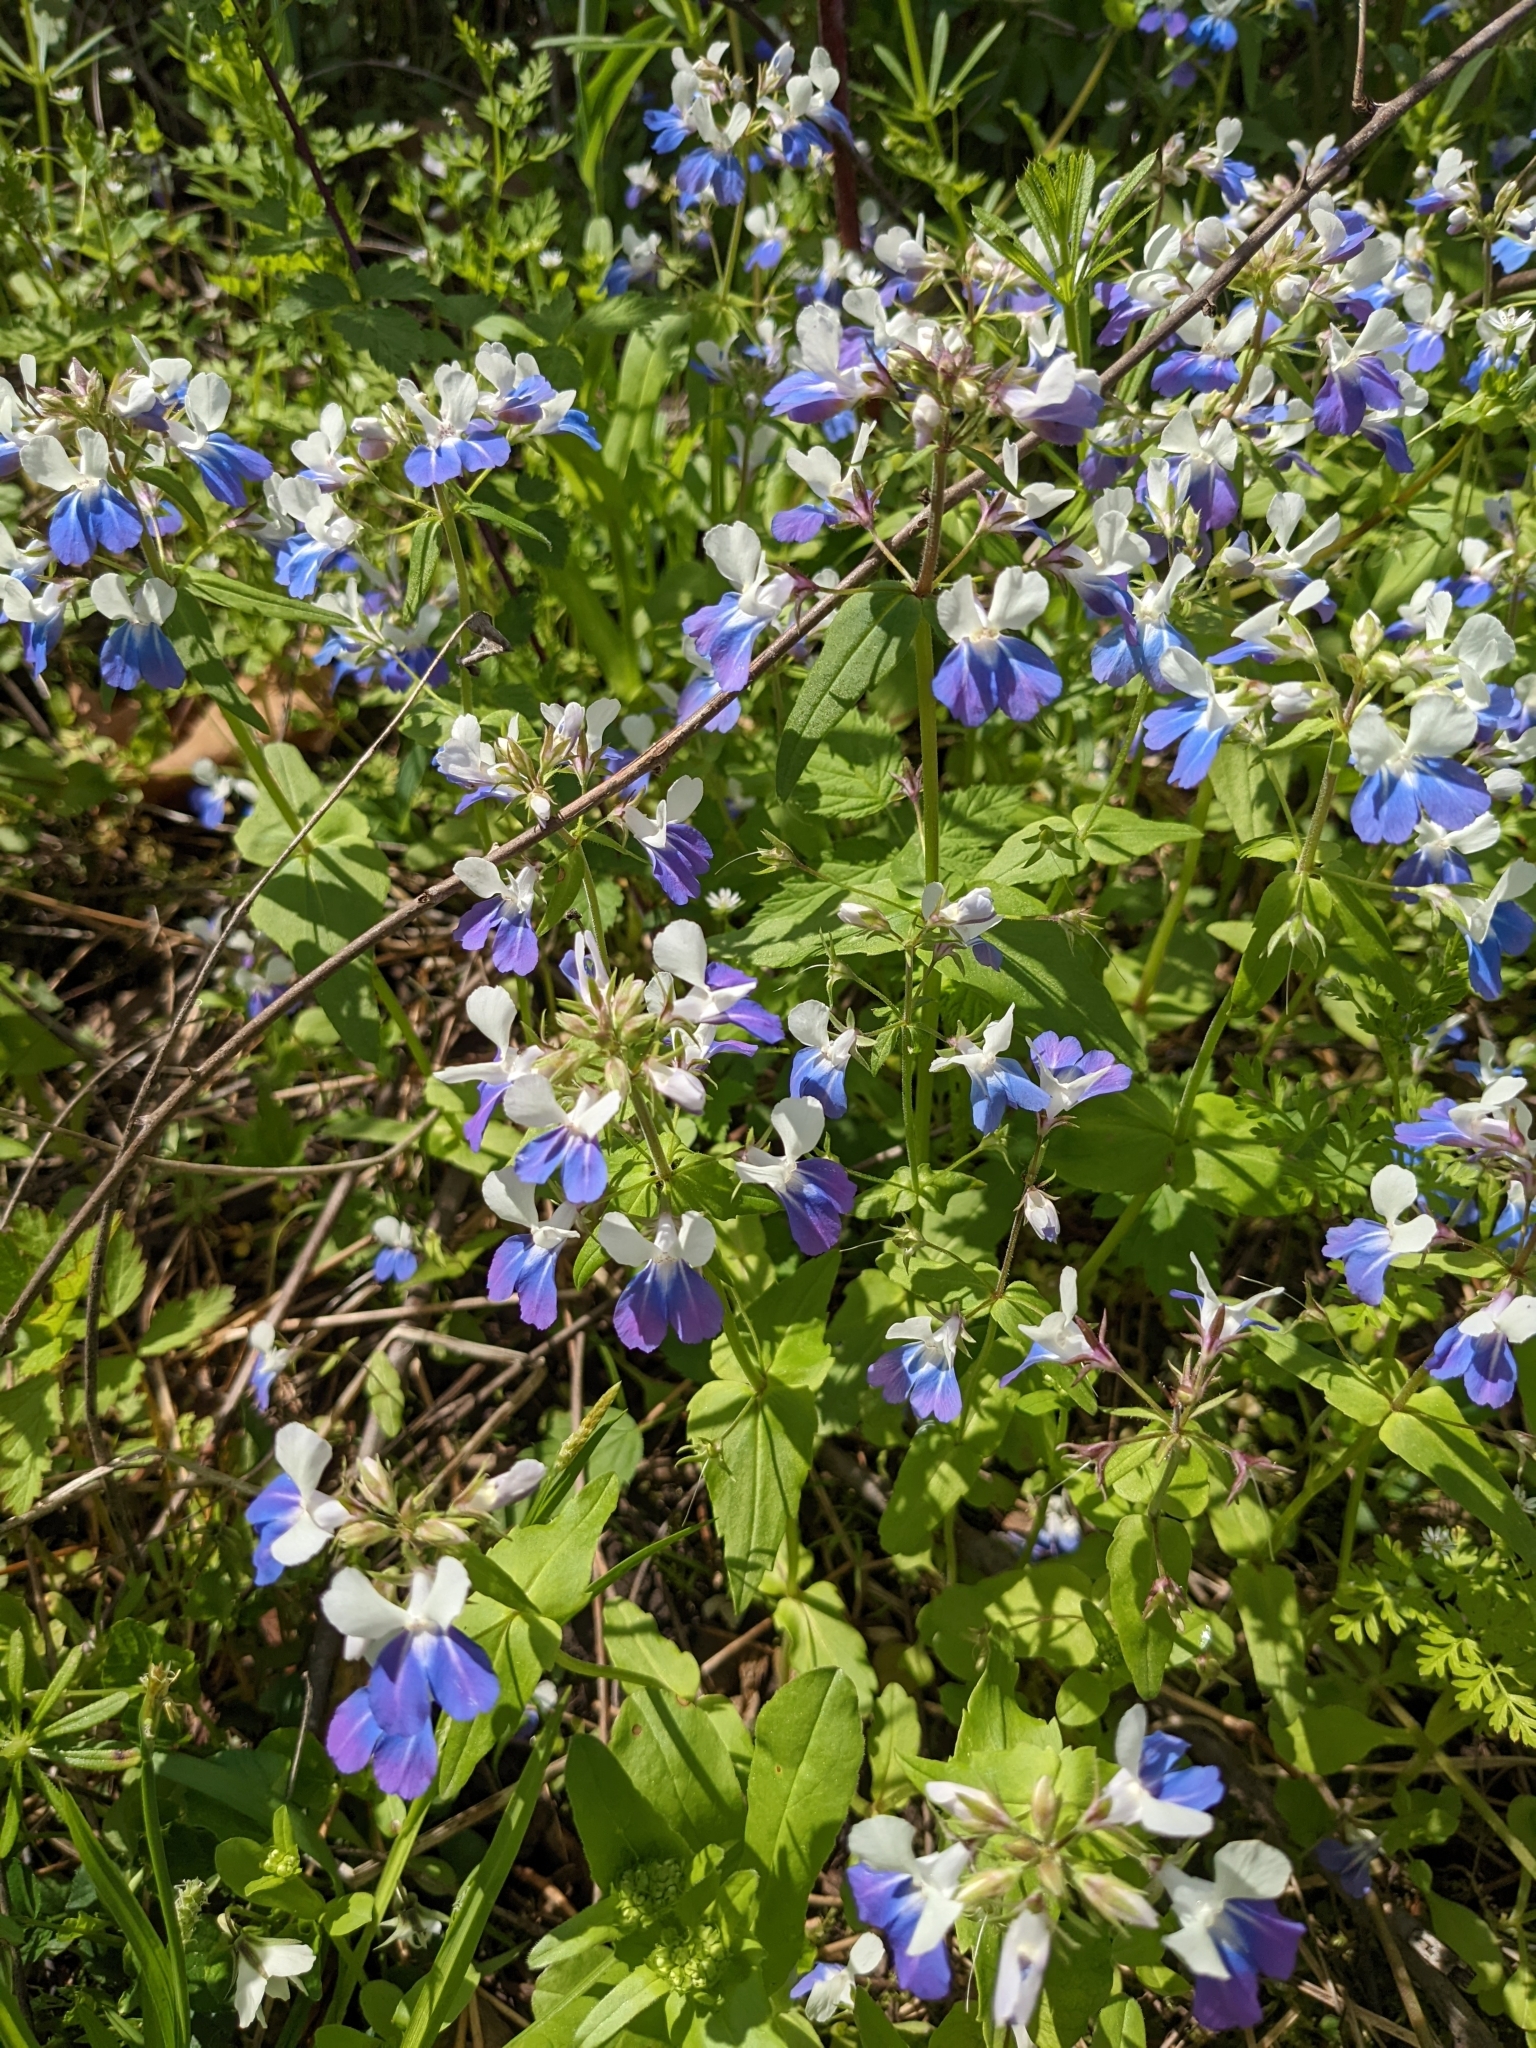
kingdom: Plantae
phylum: Tracheophyta
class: Magnoliopsida
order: Lamiales
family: Plantaginaceae
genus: Collinsia
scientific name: Collinsia verna
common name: Broad-leaved collinsia
